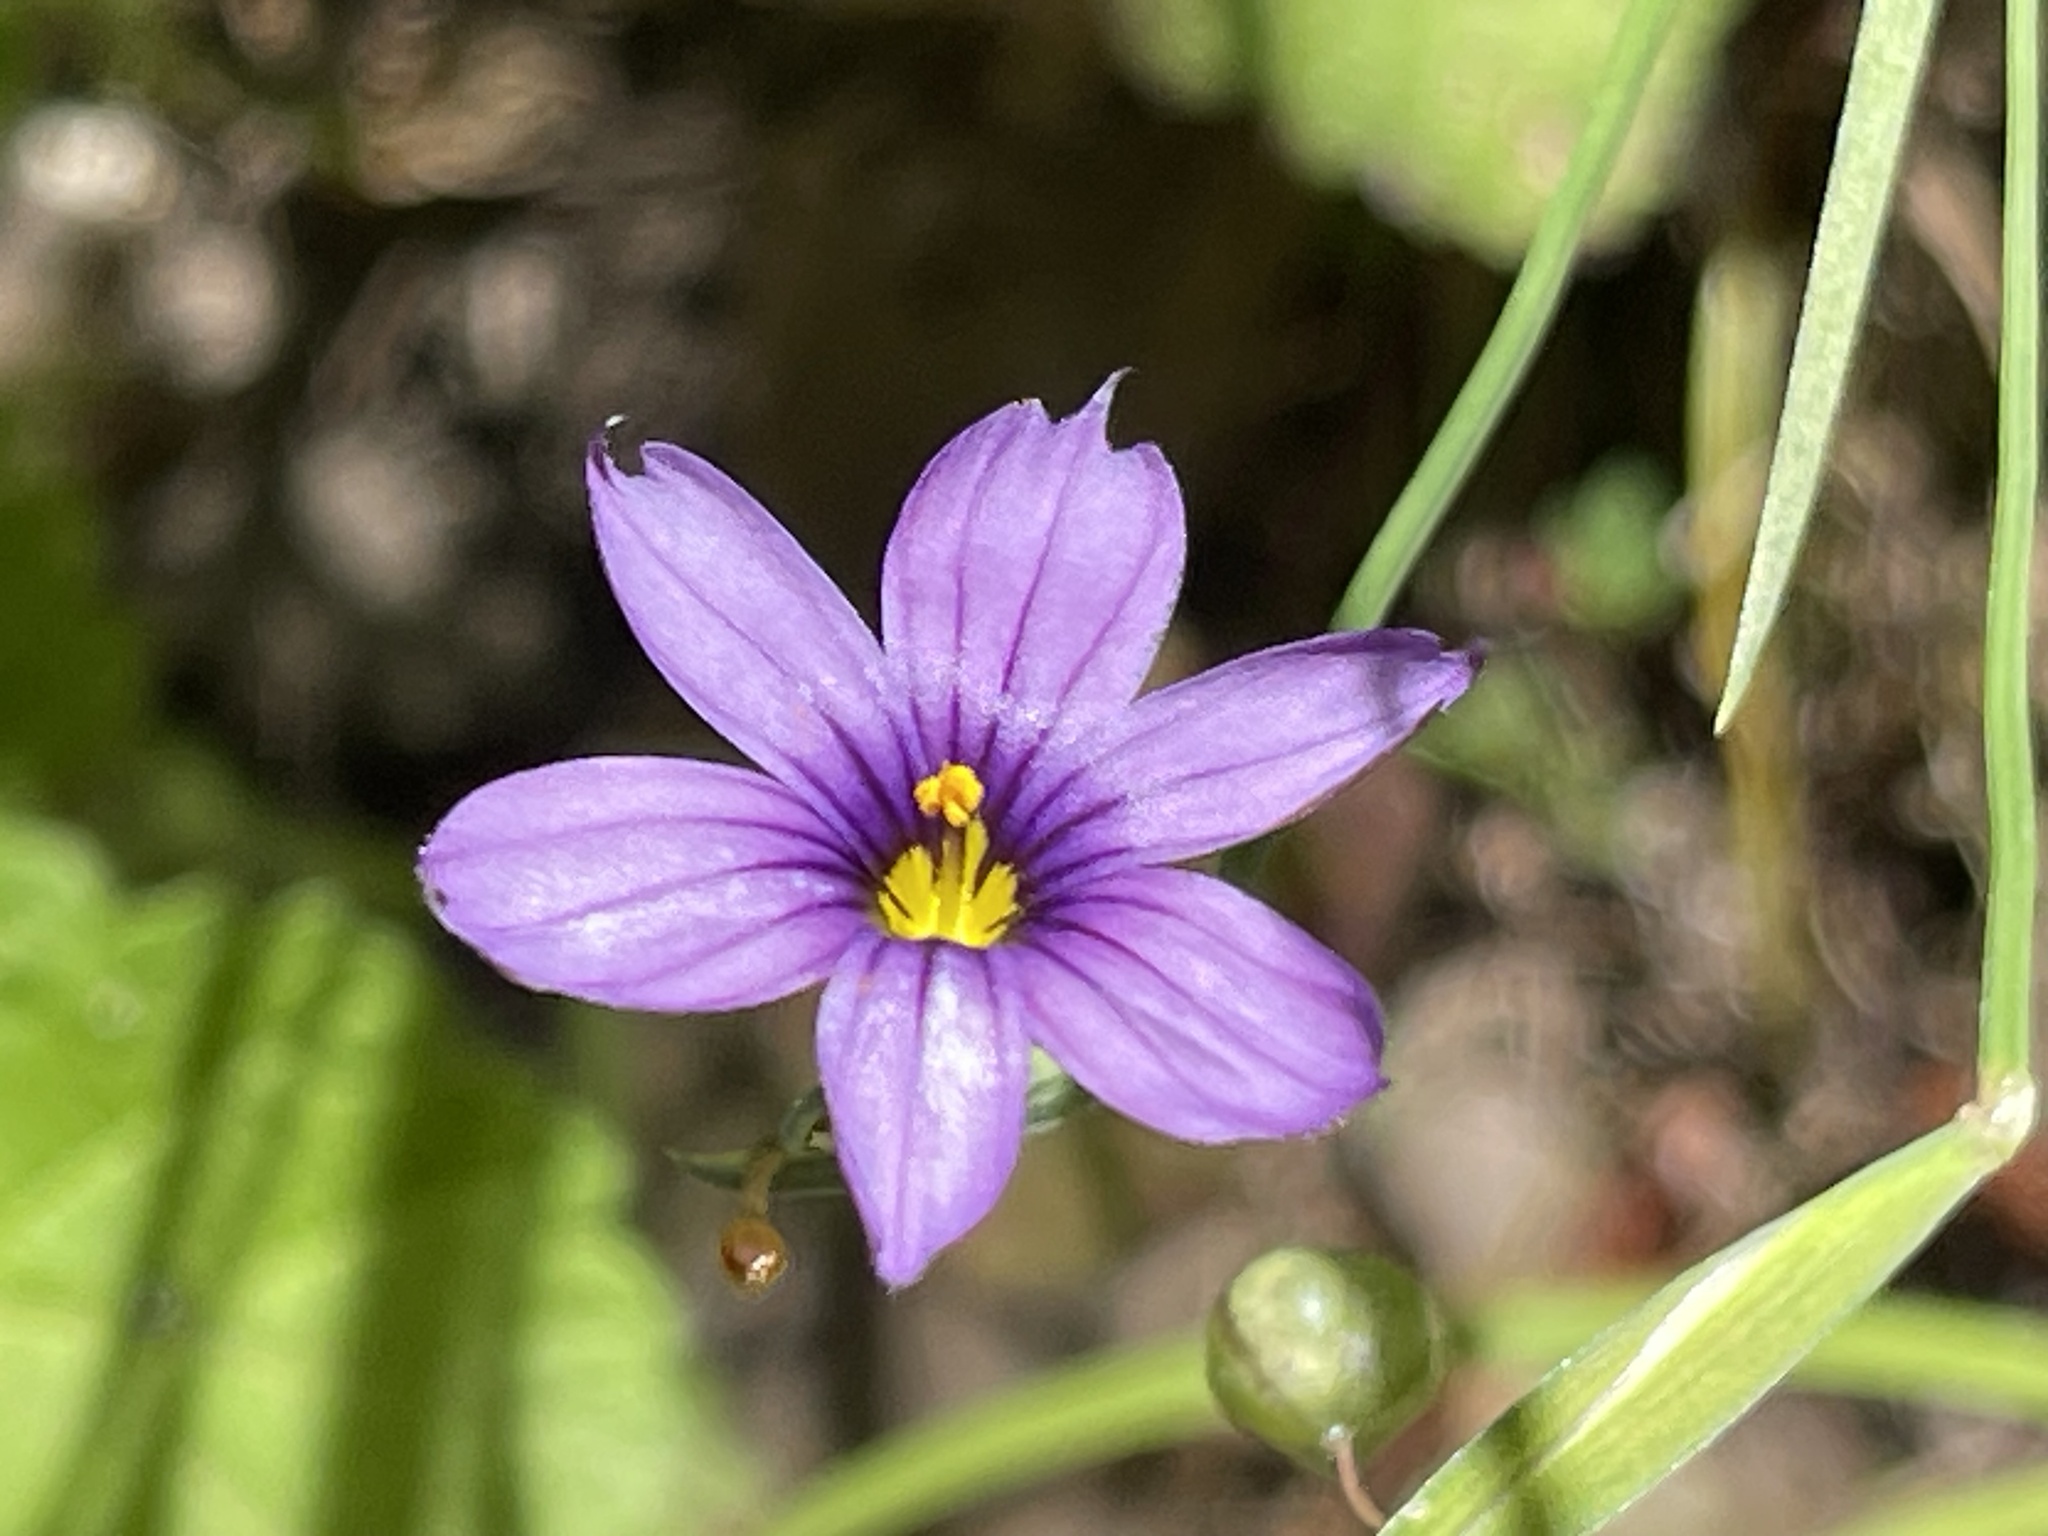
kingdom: Plantae
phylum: Tracheophyta
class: Liliopsida
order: Asparagales
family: Iridaceae
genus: Sisyrinchium
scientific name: Sisyrinchium bellum
